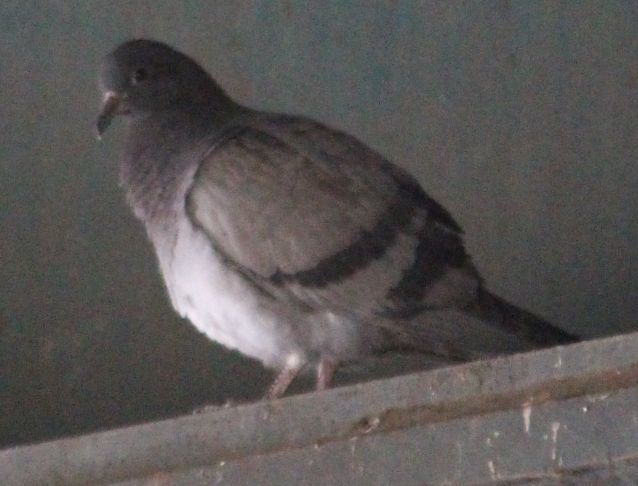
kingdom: Animalia
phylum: Chordata
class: Aves
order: Columbiformes
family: Columbidae
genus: Columba
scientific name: Columba livia
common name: Rock pigeon
